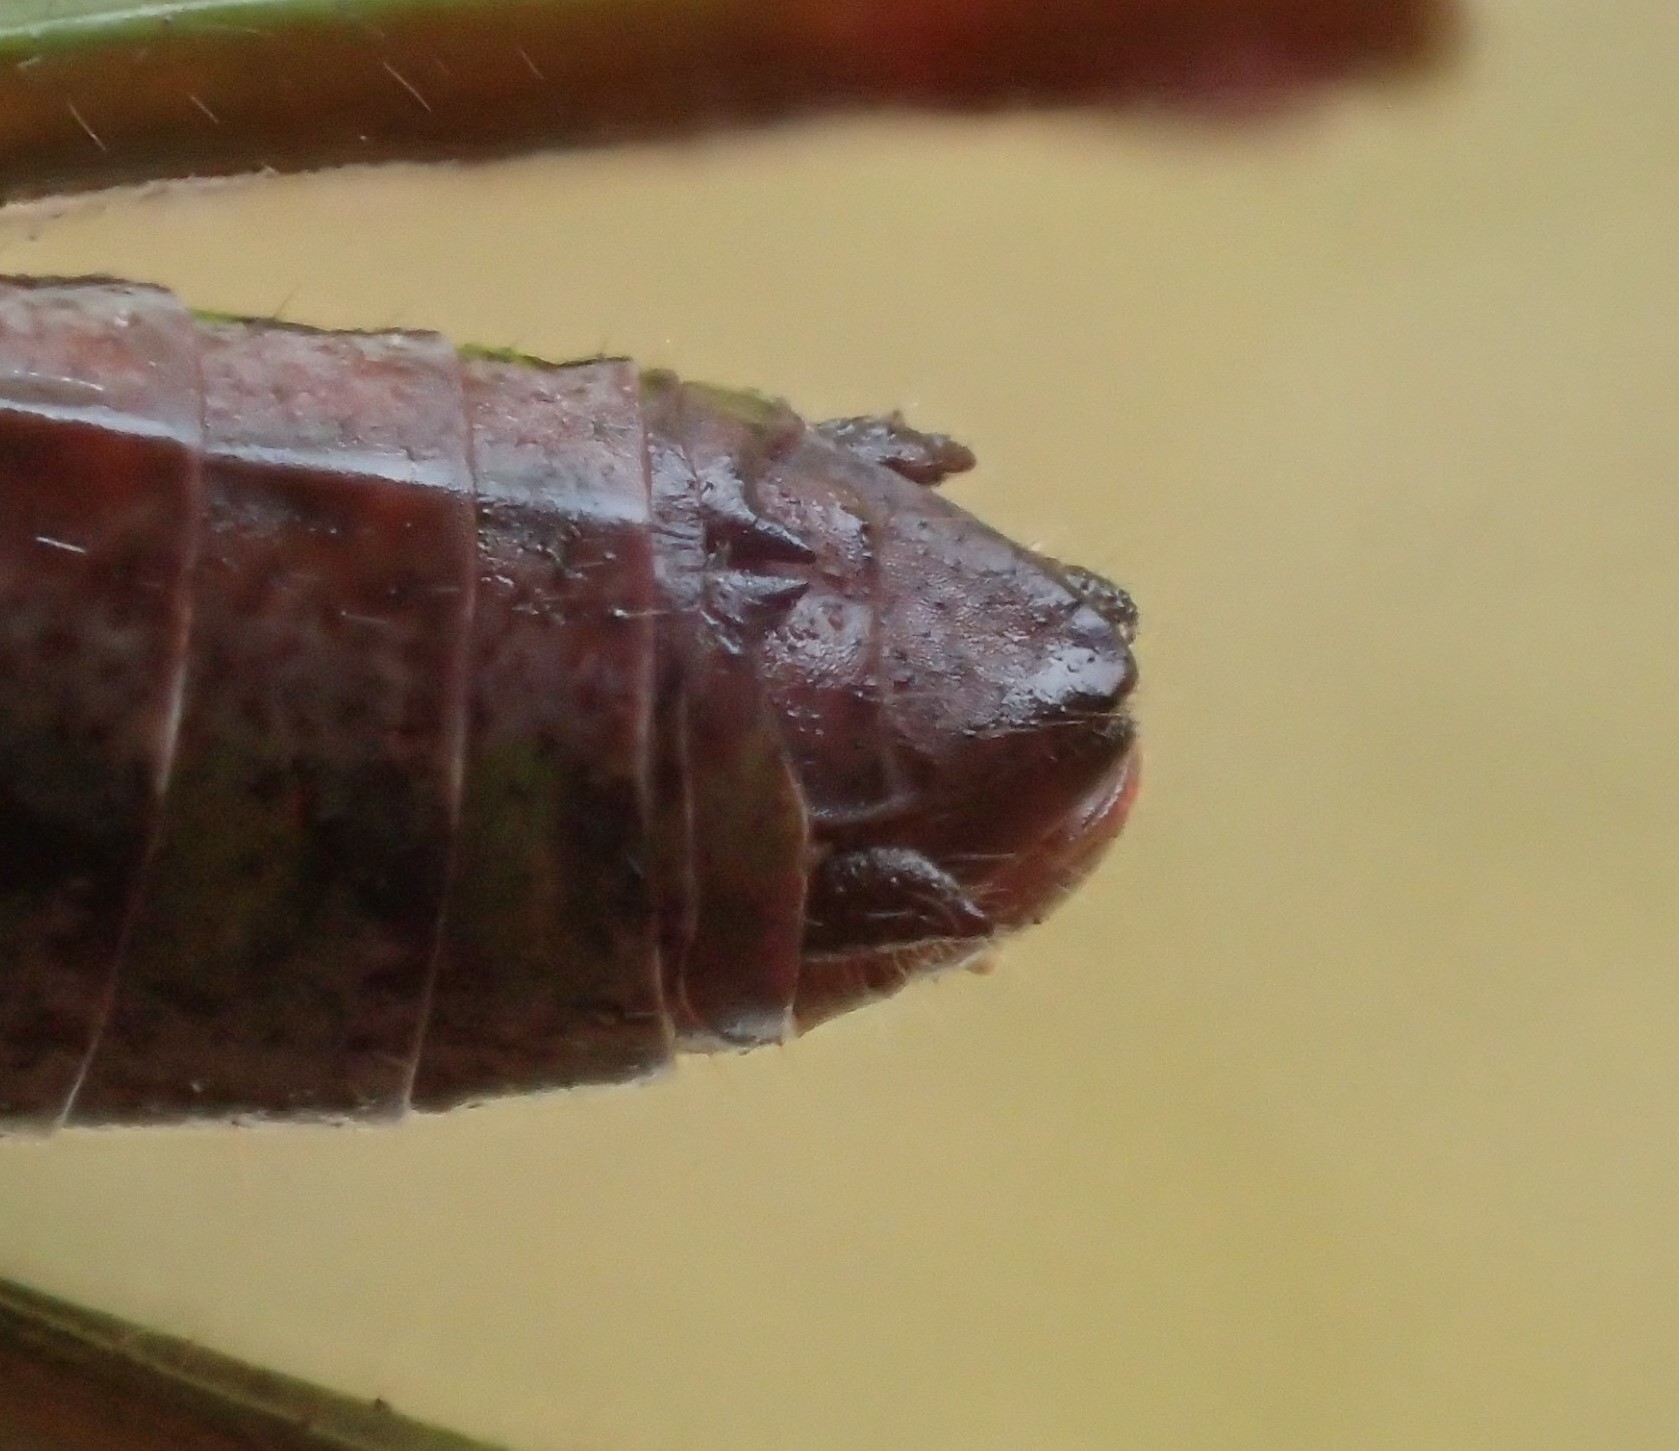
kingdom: Animalia
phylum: Arthropoda
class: Insecta
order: Orthoptera
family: Acrididae
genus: Russalpia
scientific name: Russalpia longifurca
